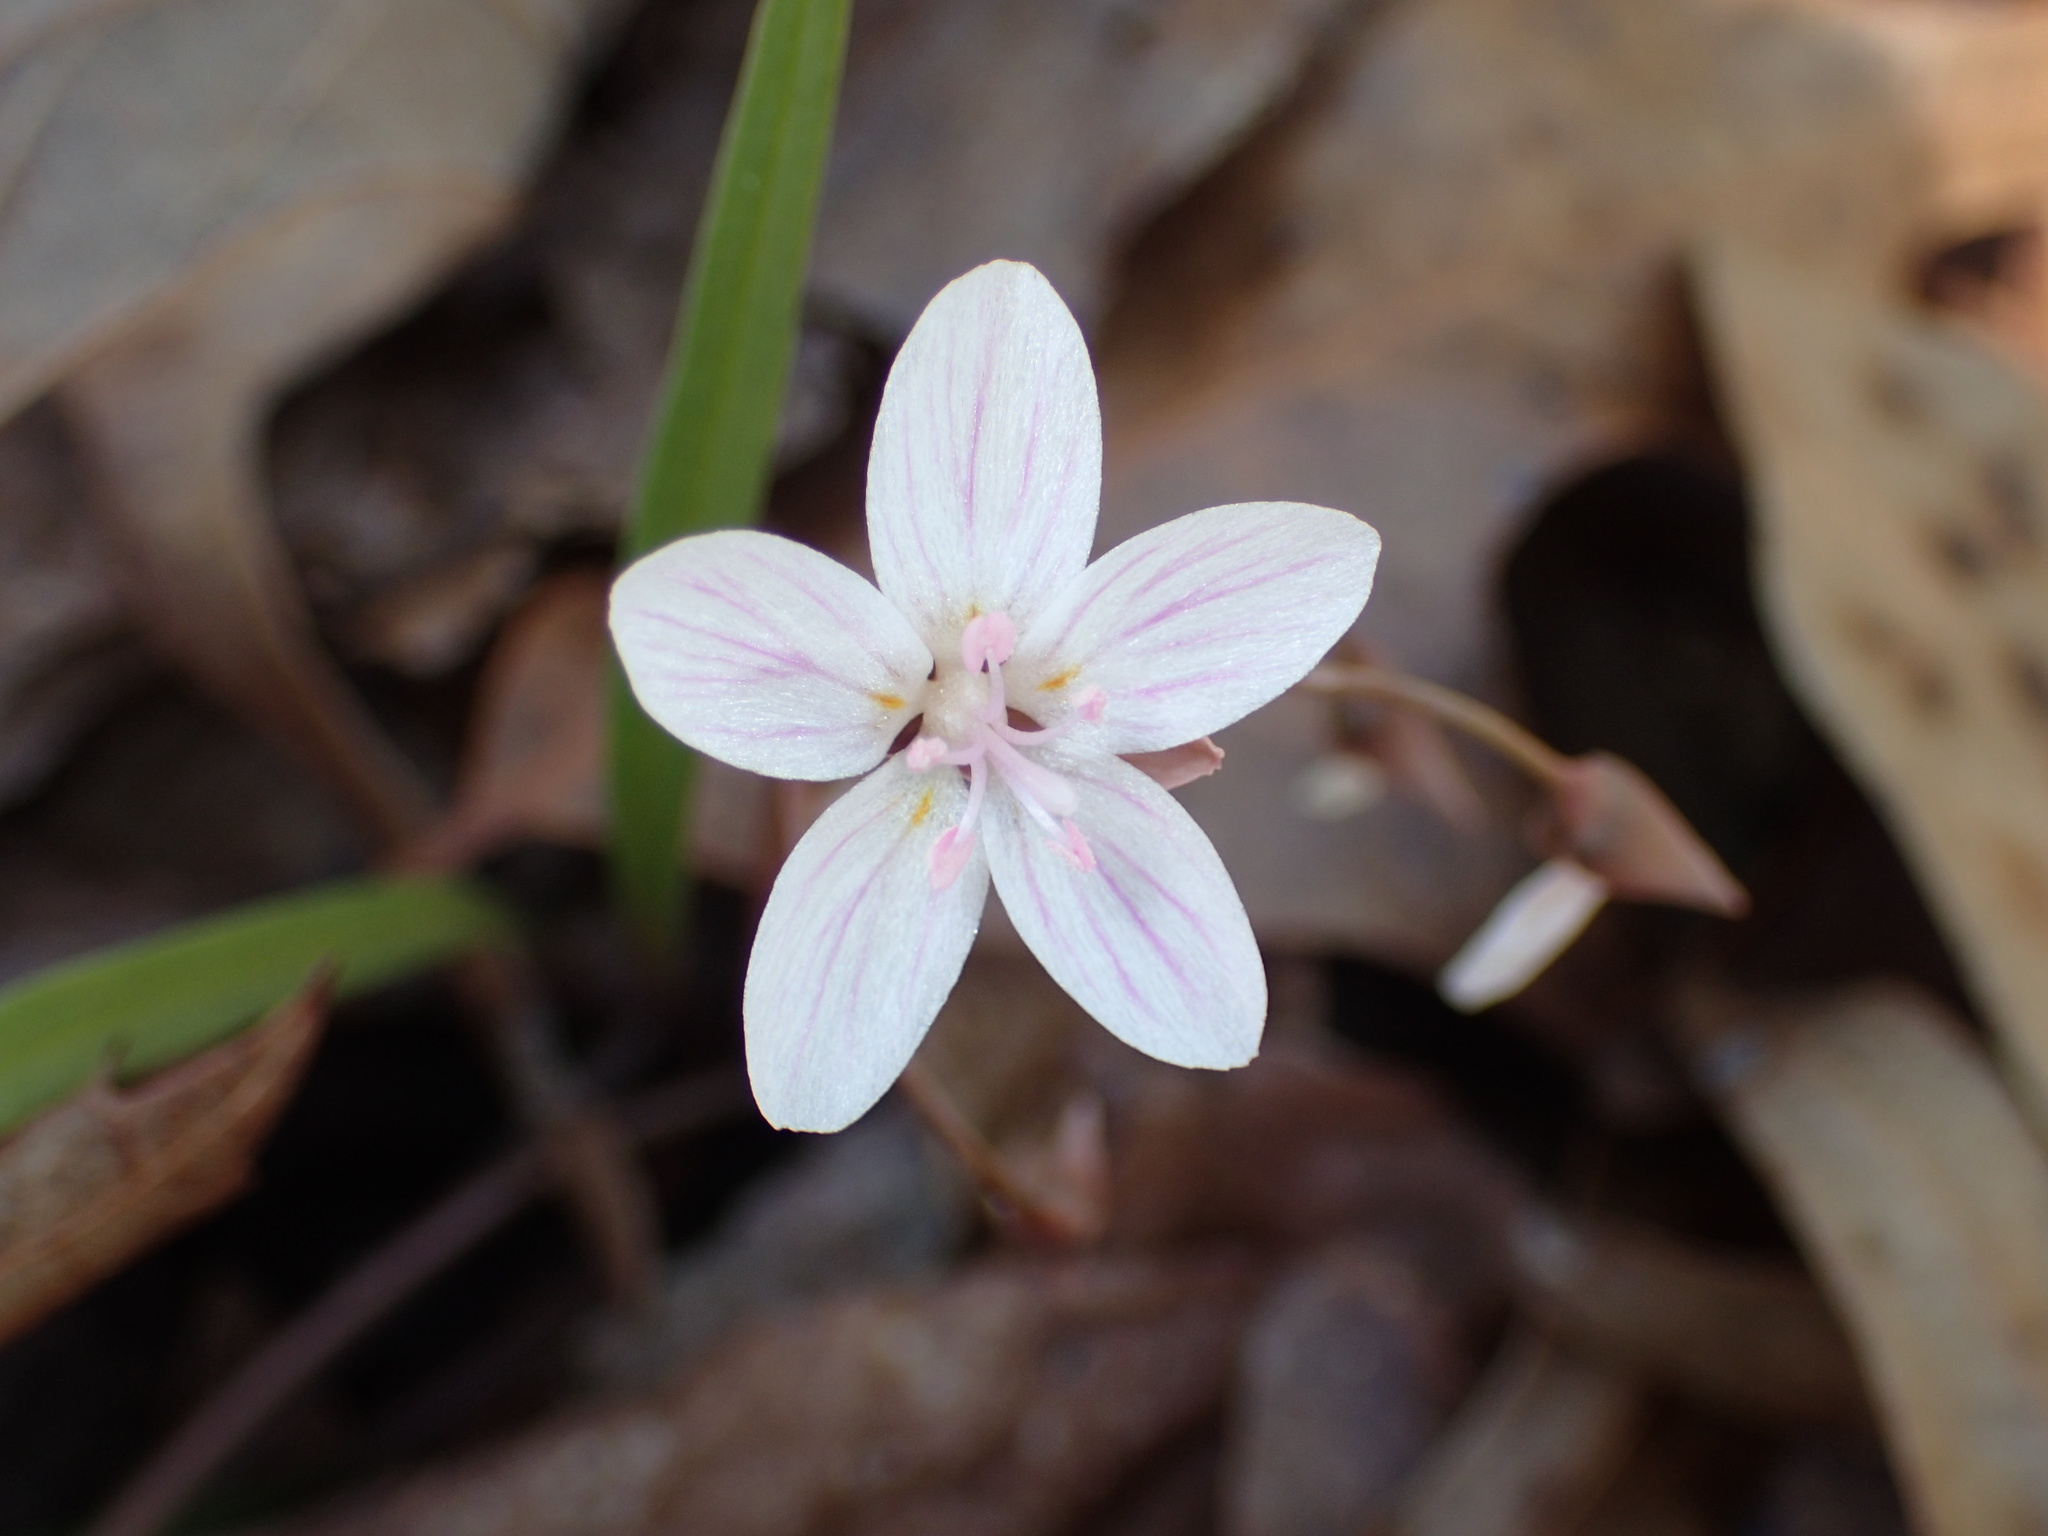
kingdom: Plantae
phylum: Tracheophyta
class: Magnoliopsida
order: Caryophyllales
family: Montiaceae
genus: Claytonia
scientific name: Claytonia virginica
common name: Virginia springbeauty
